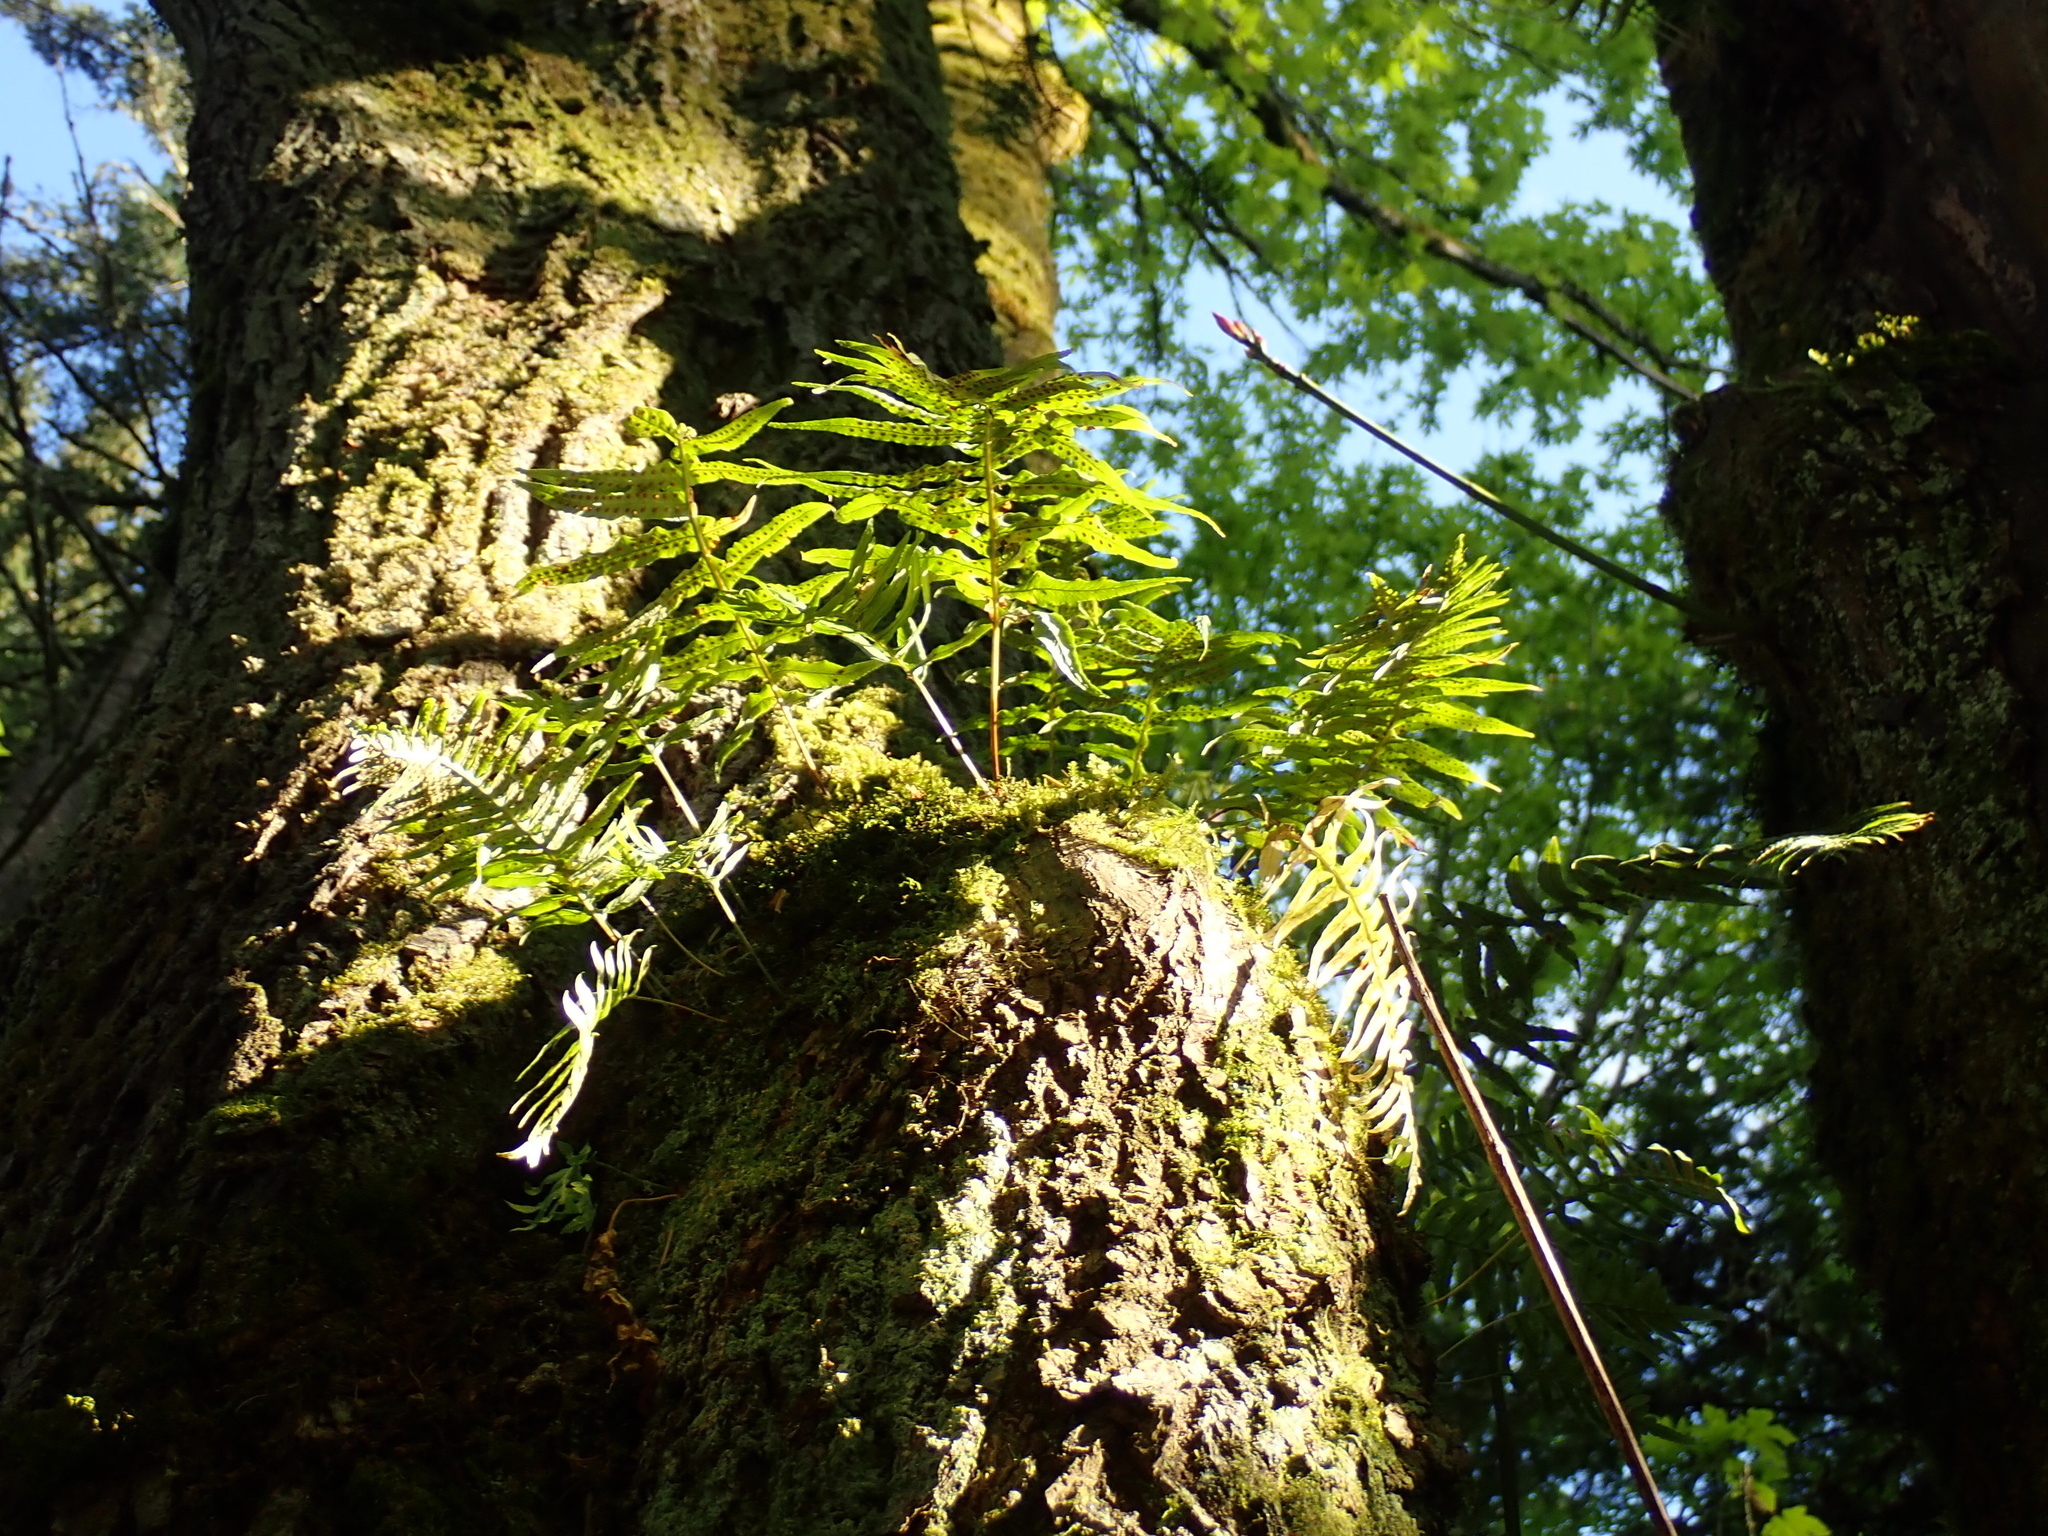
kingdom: Plantae
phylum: Tracheophyta
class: Polypodiopsida
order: Polypodiales
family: Polypodiaceae
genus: Polypodium
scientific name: Polypodium glycyrrhiza
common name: Licorice fern
